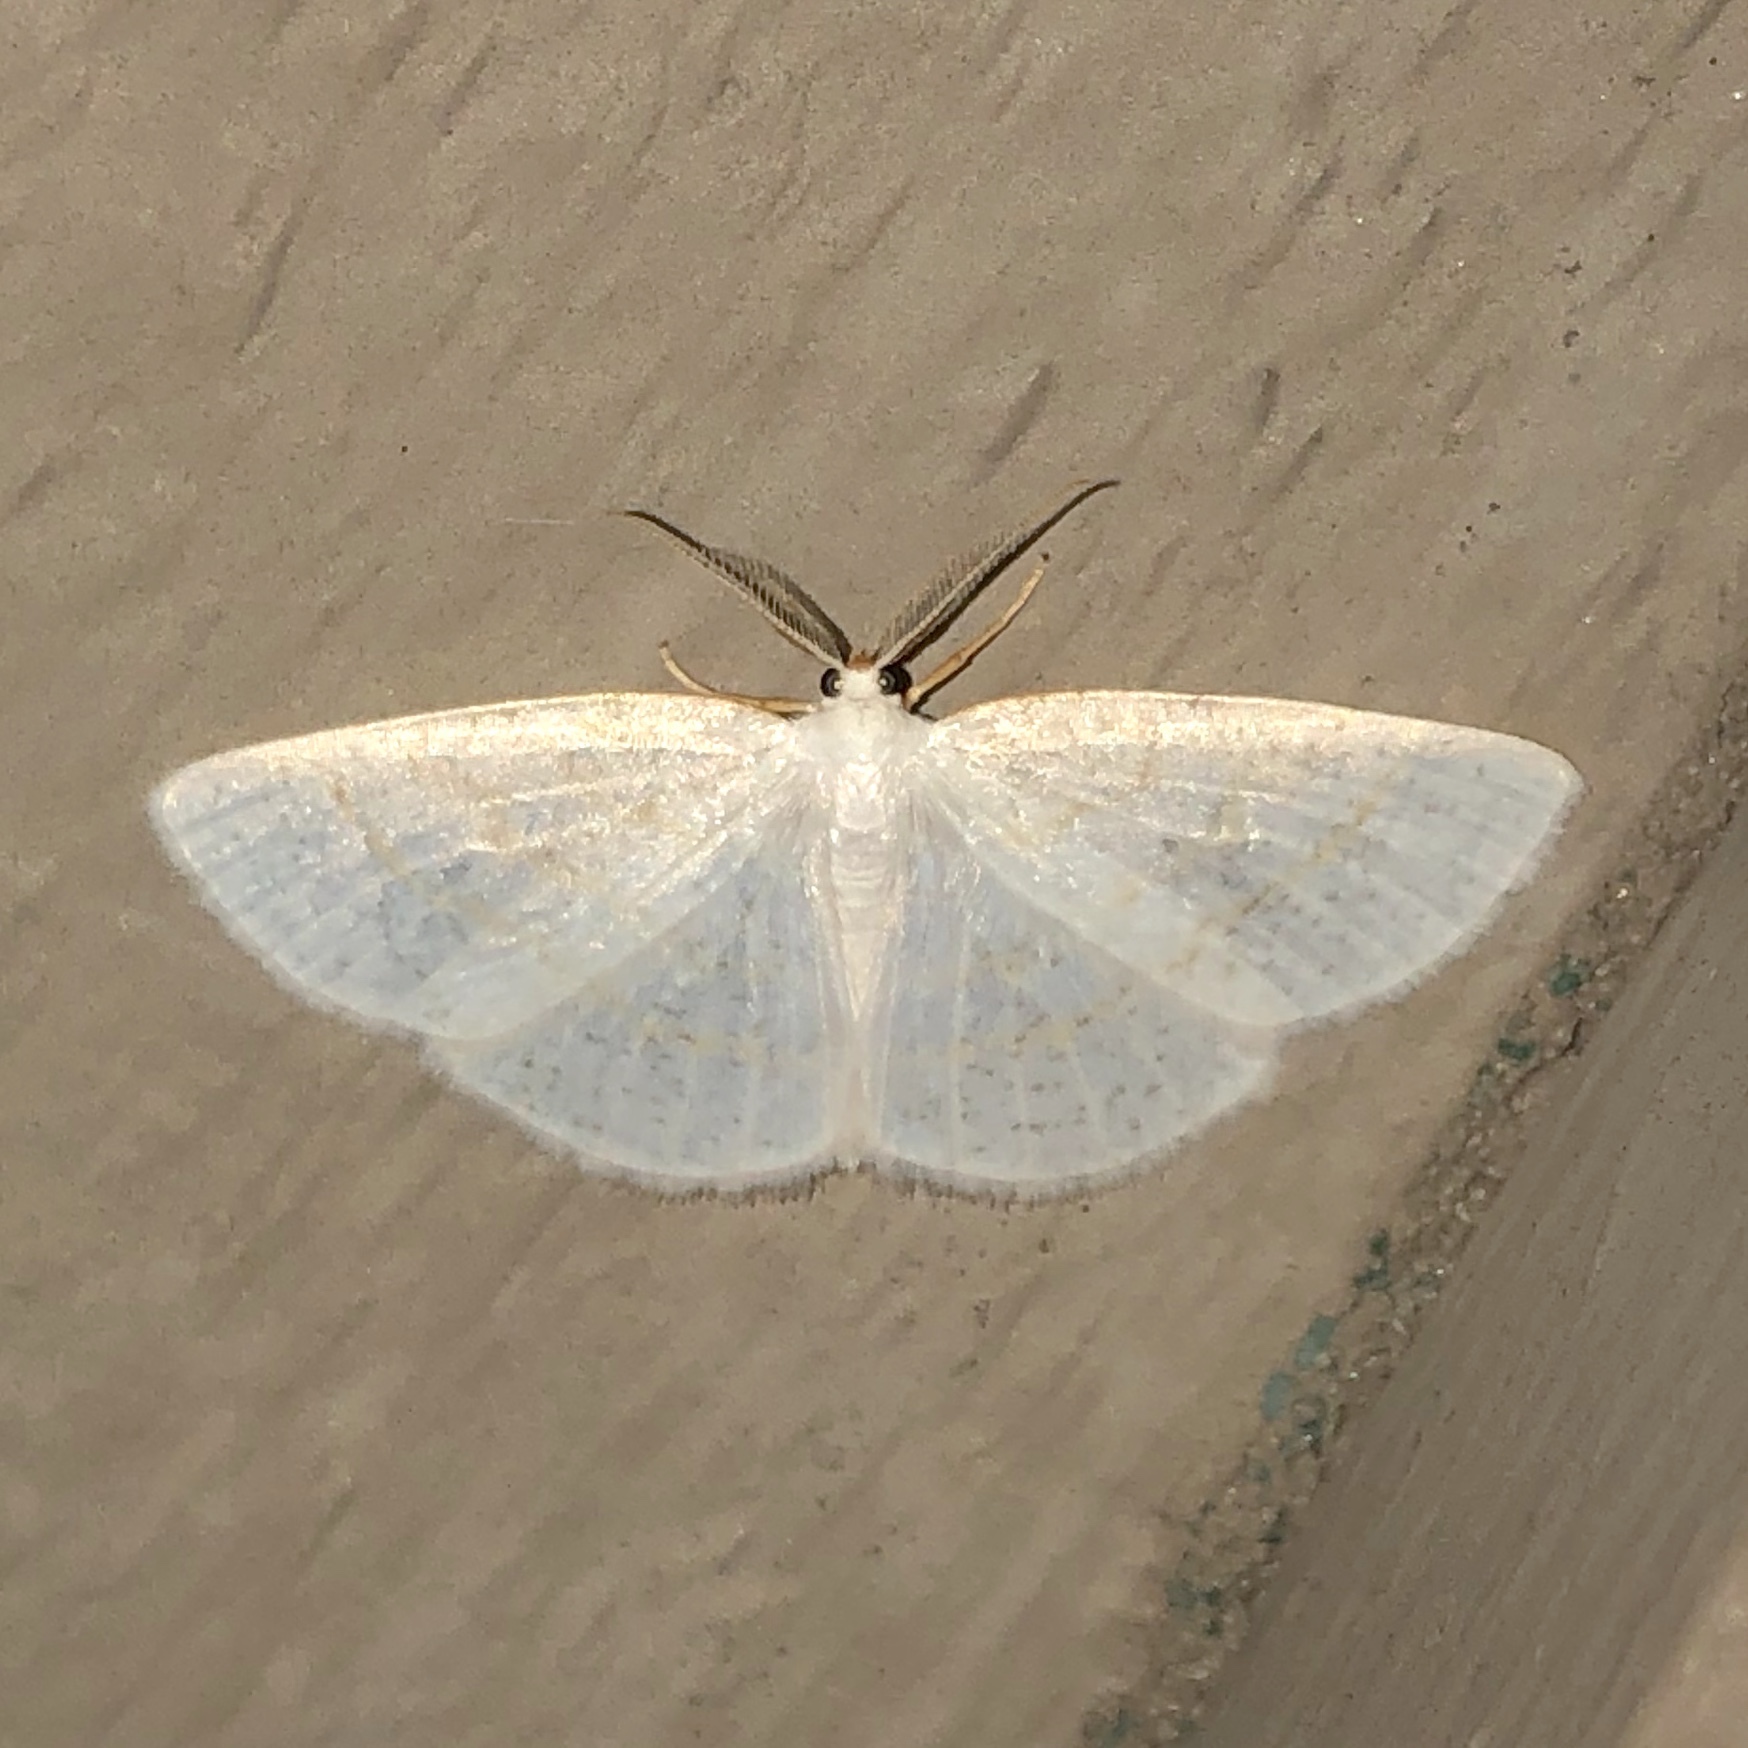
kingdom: Animalia
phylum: Arthropoda
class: Insecta
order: Lepidoptera
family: Geometridae
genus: Cabera
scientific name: Cabera erythemaria
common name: Yellow-dusted cream moth
